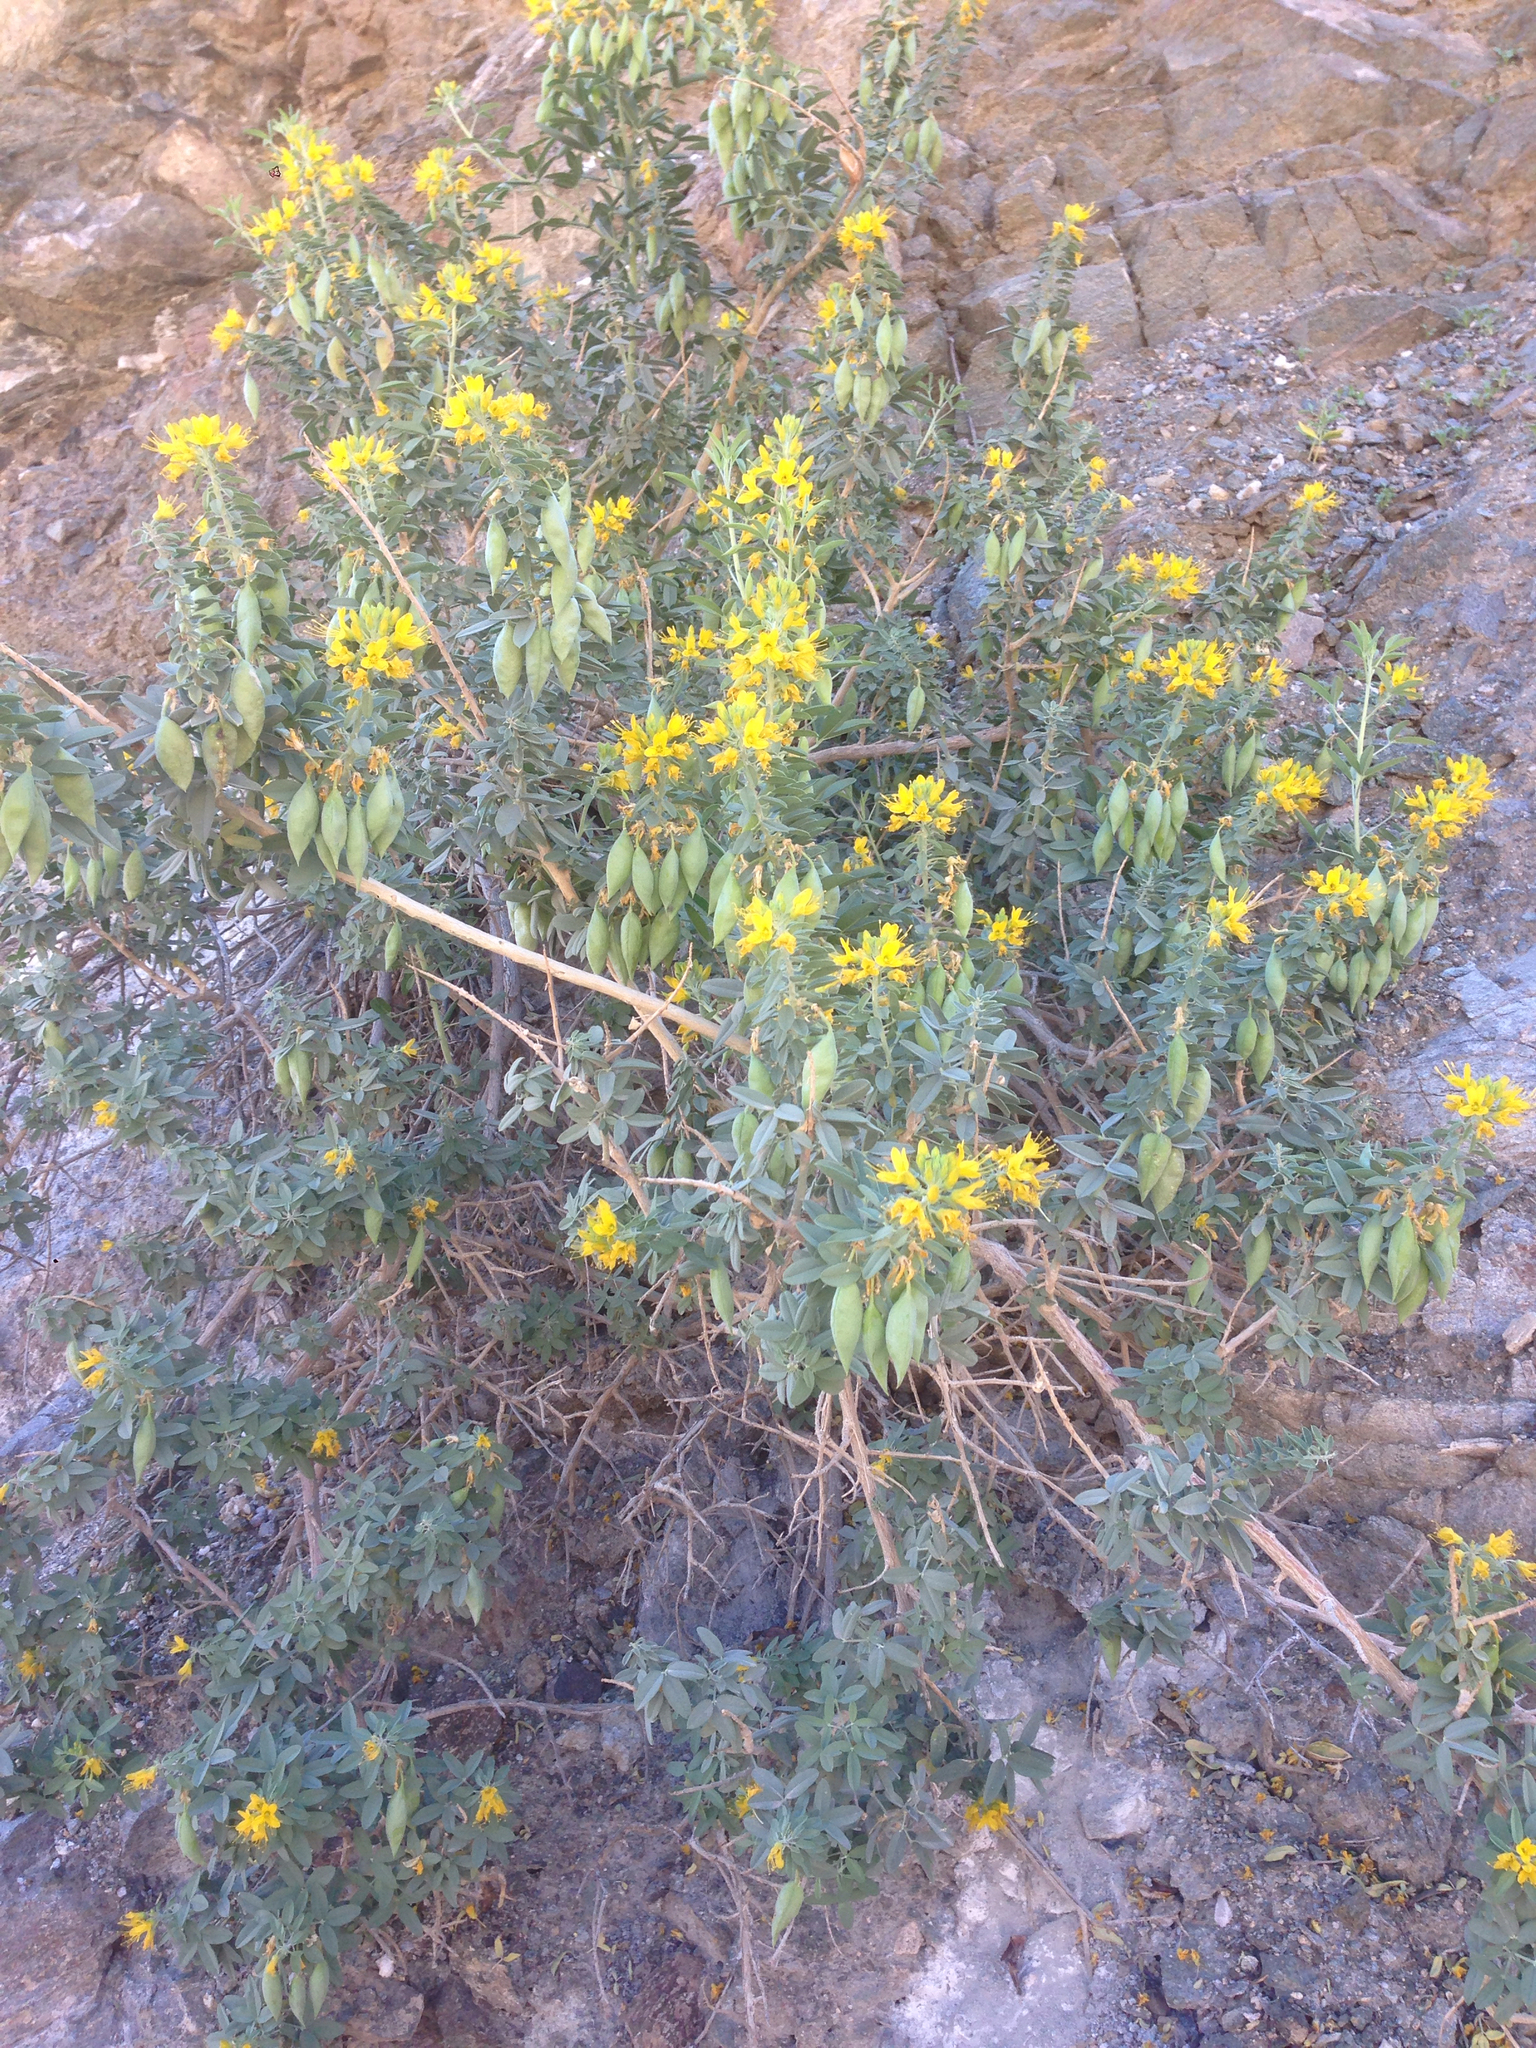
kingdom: Plantae
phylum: Tracheophyta
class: Magnoliopsida
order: Brassicales
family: Cleomaceae
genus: Cleomella
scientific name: Cleomella arborea
